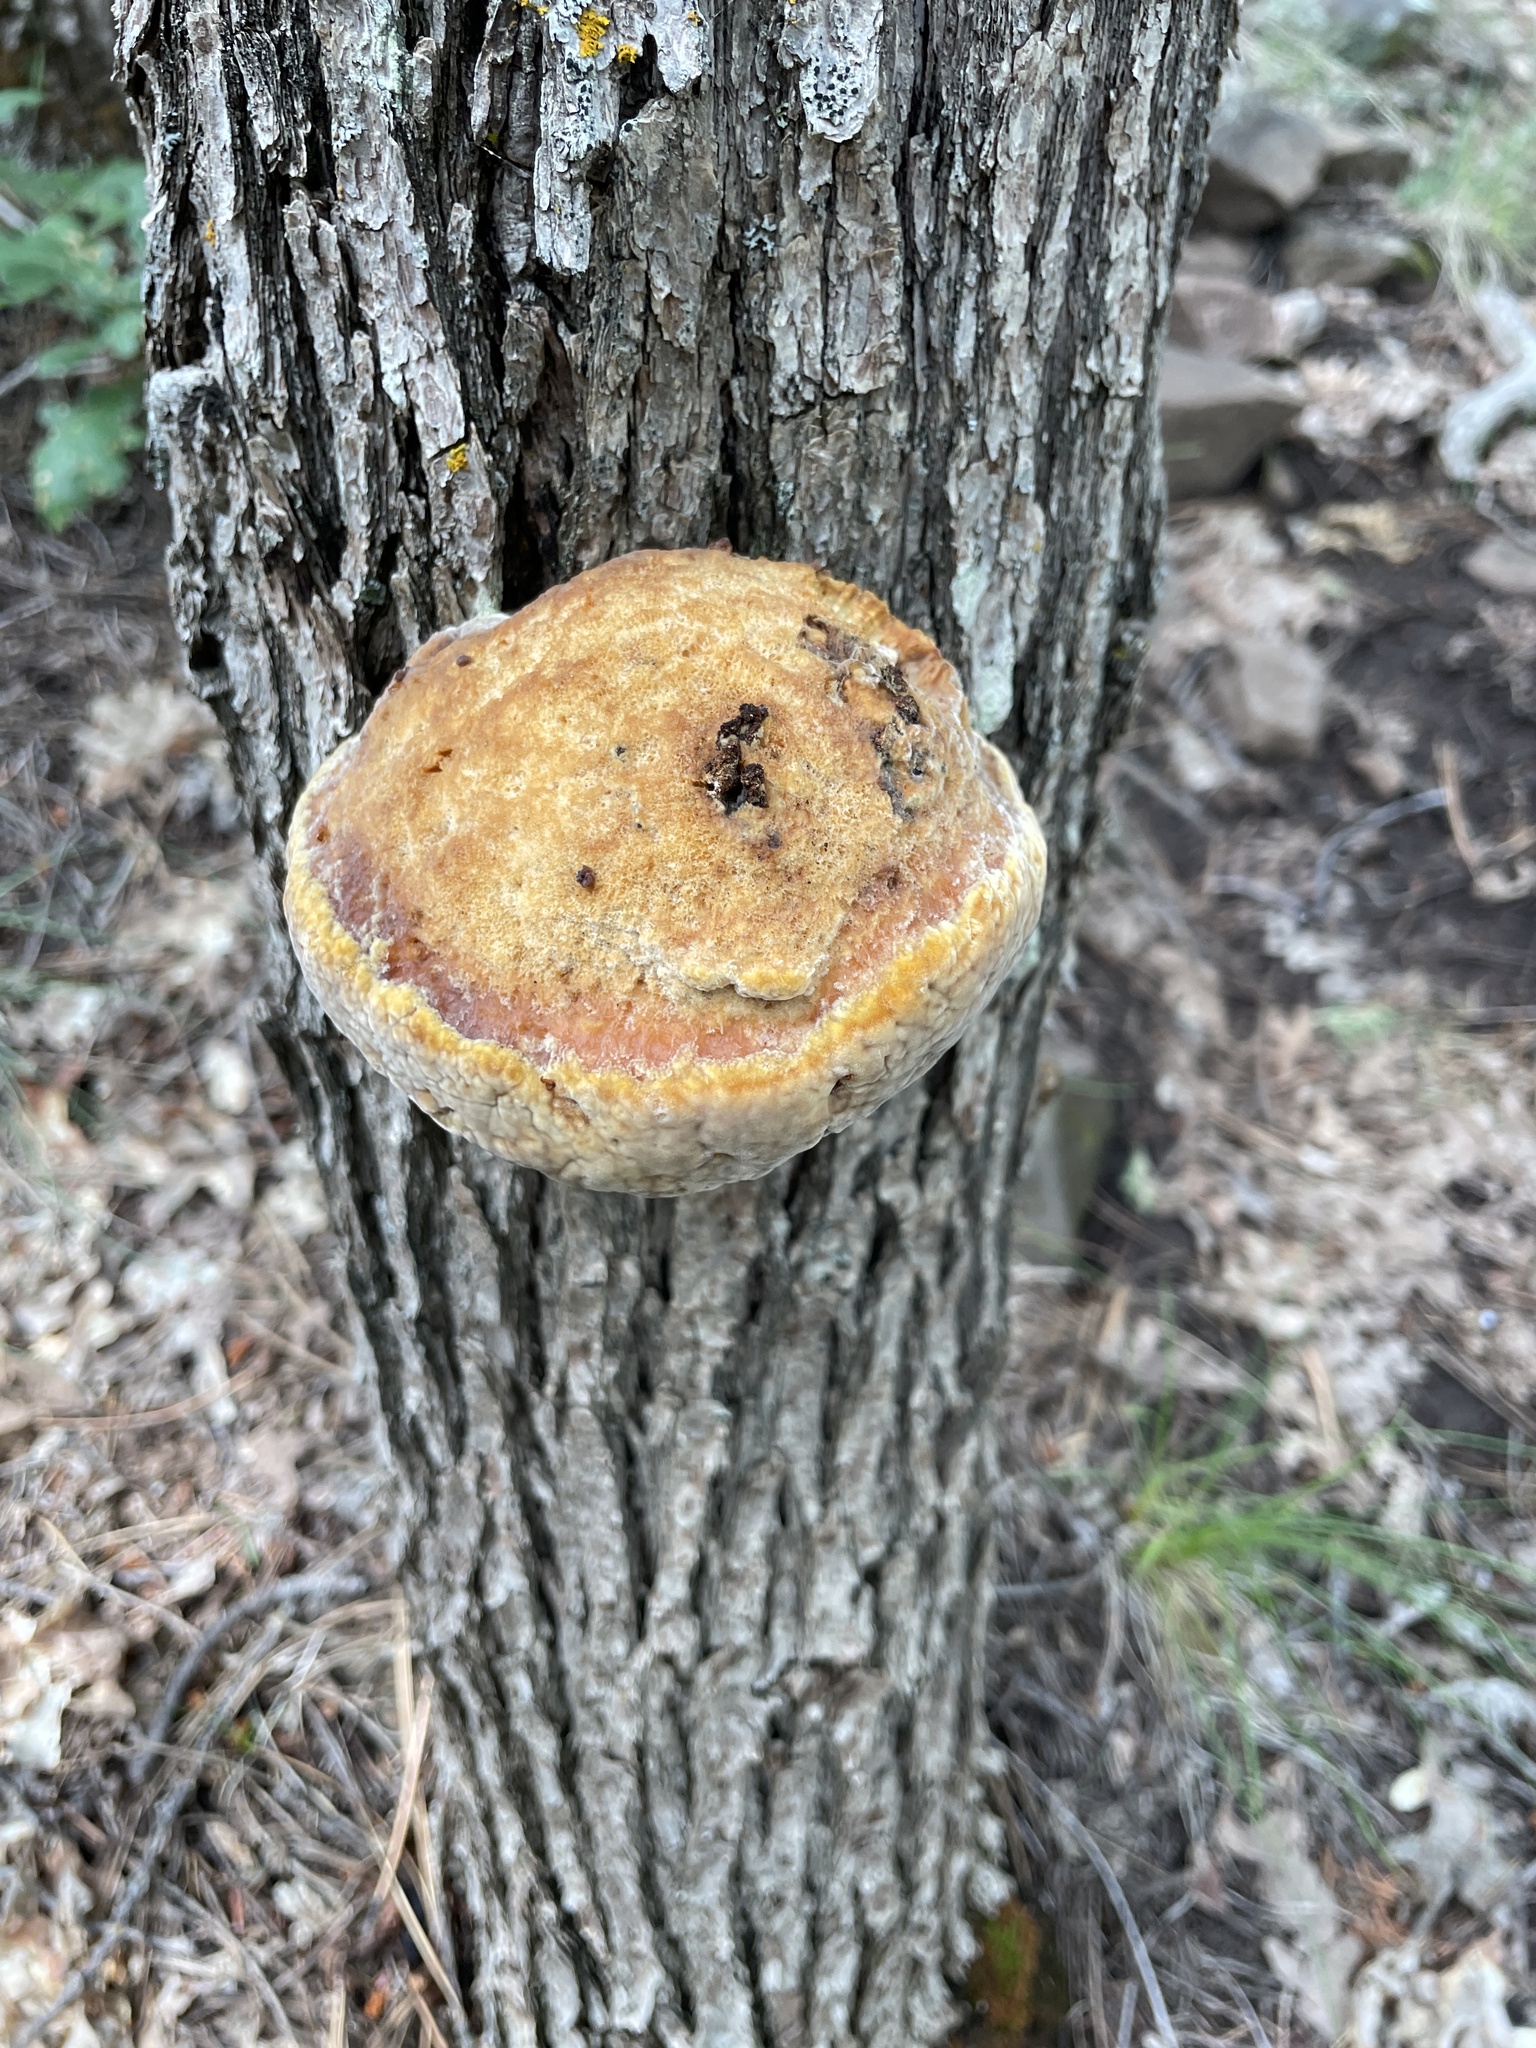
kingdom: Fungi
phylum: Basidiomycota
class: Agaricomycetes
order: Hymenochaetales
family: Hymenochaetaceae
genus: Inocutis
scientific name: Inocutis dryophila
